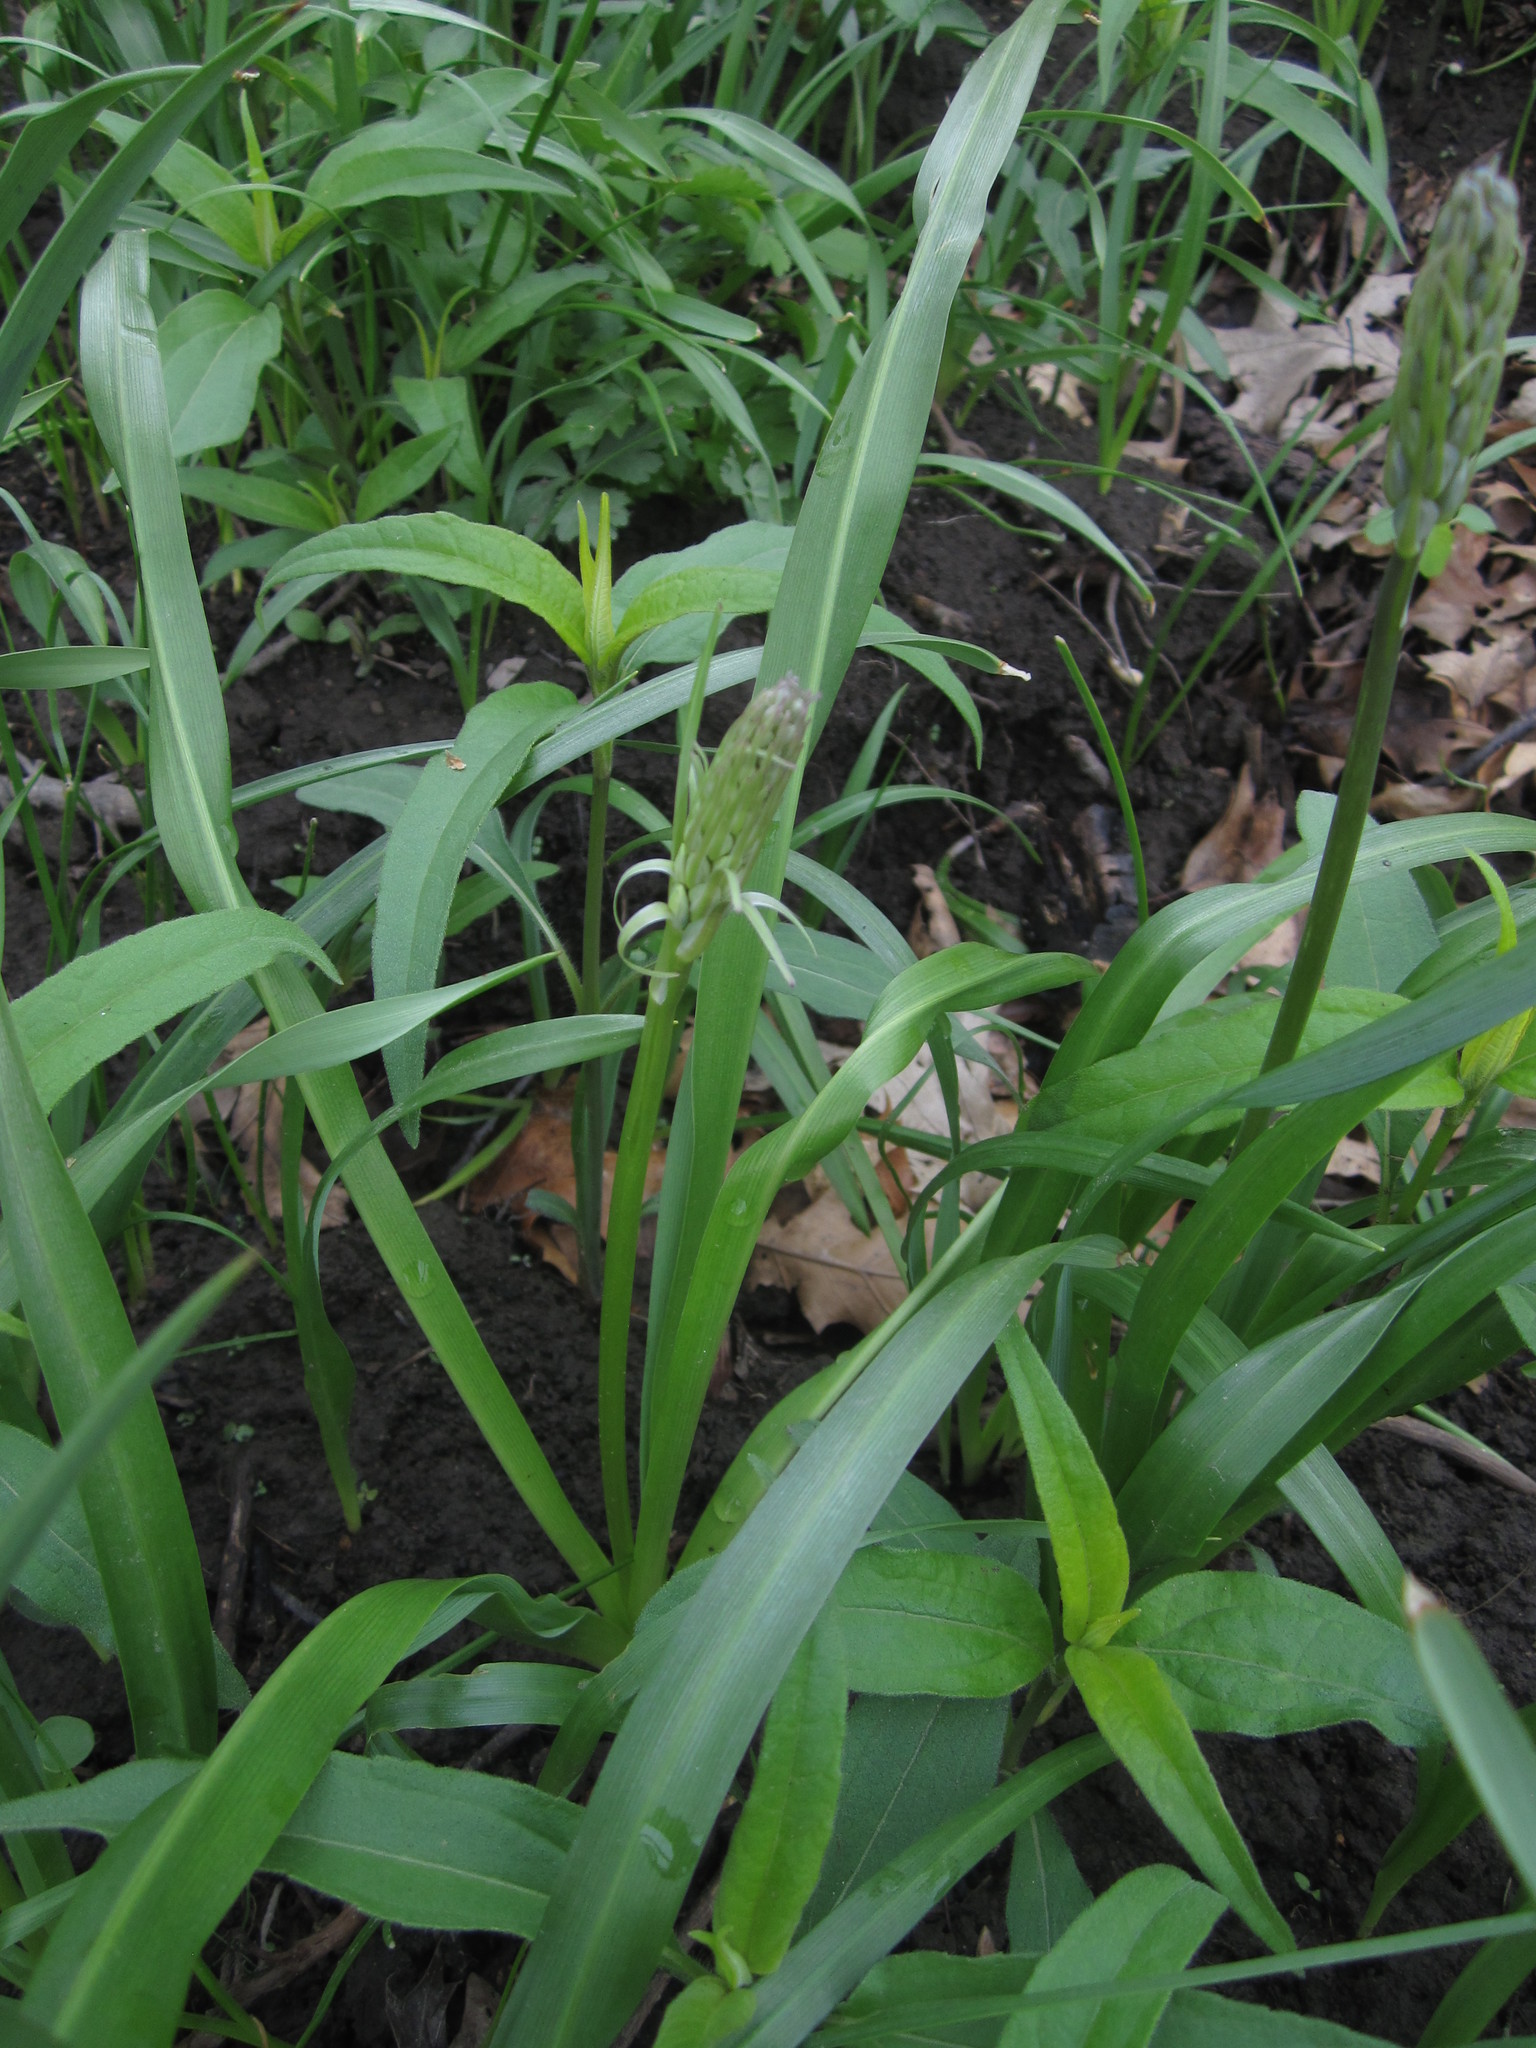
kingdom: Plantae
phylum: Tracheophyta
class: Liliopsida
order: Asparagales
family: Asparagaceae
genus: Camassia
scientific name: Camassia scilloides
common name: Wild hyacinth
